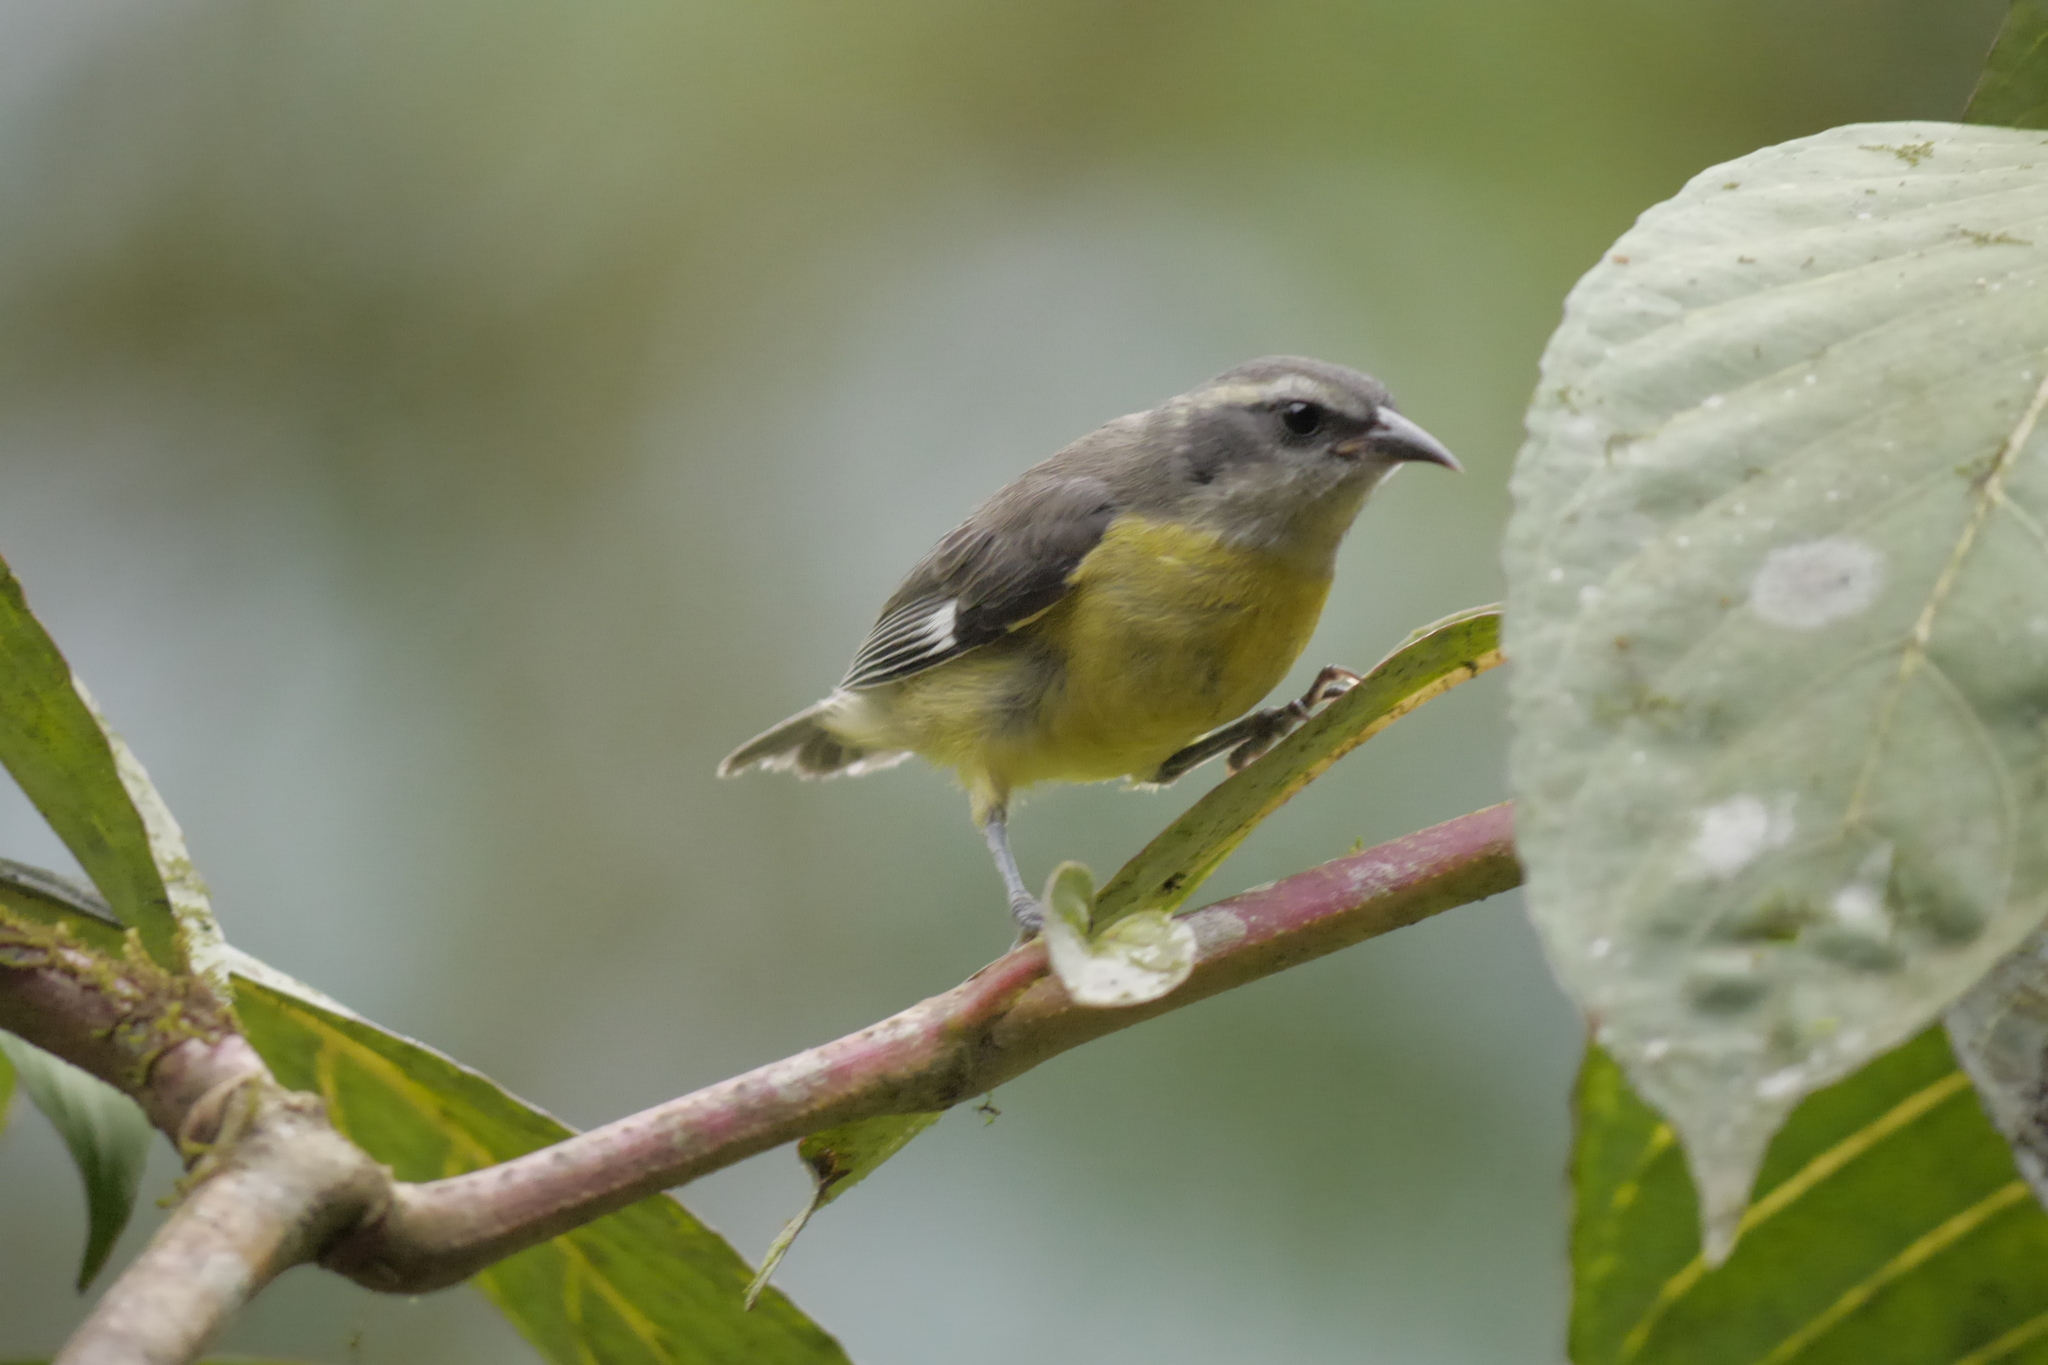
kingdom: Animalia
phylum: Chordata
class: Aves
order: Passeriformes
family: Thraupidae
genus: Coereba
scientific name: Coereba flaveola
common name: Bananaquit
